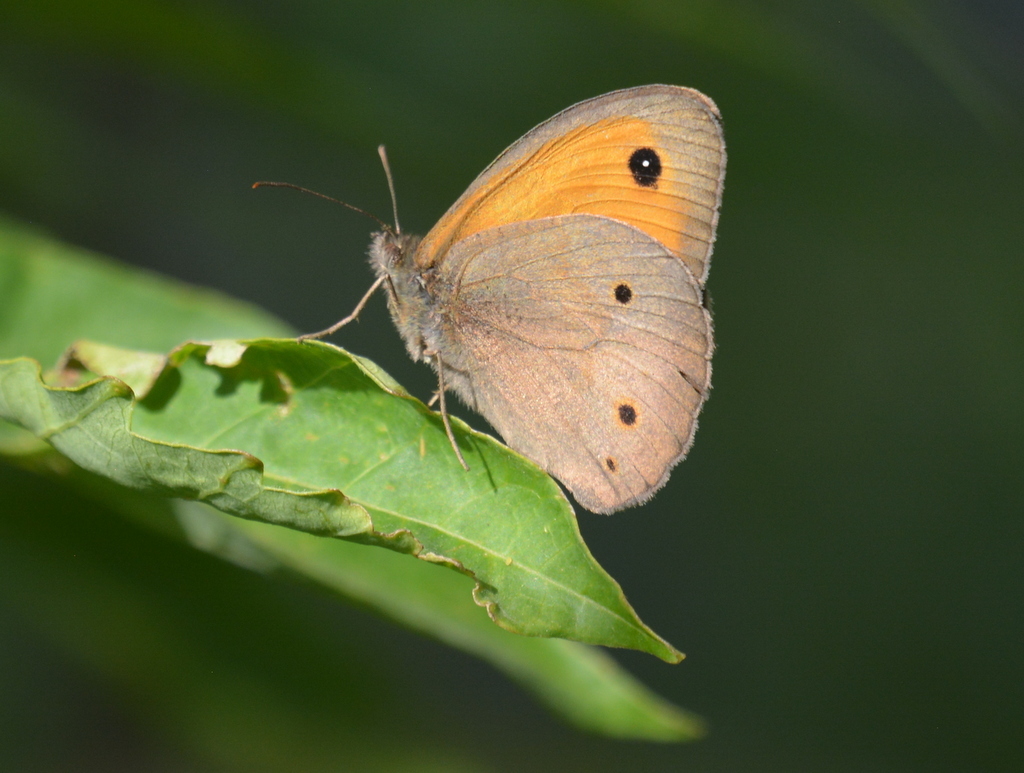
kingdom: Animalia
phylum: Arthropoda
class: Insecta
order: Lepidoptera
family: Nymphalidae
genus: Maniola
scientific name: Maniola jurtina
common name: Meadow brown
